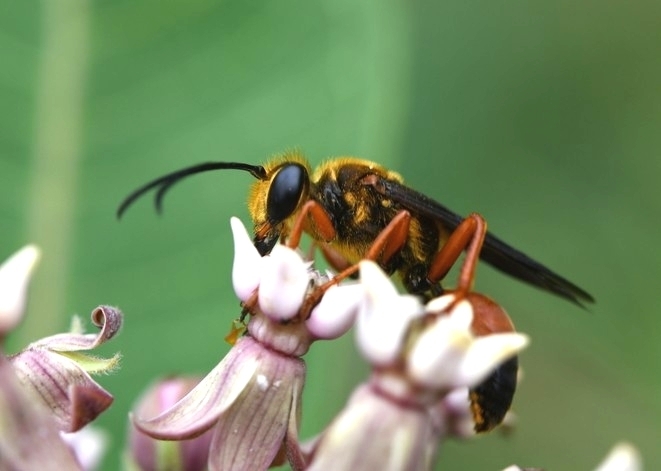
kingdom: Animalia
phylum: Arthropoda
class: Insecta
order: Hymenoptera
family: Sphecidae
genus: Sphex
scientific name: Sphex ichneumoneus
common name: Great golden digger wasp
